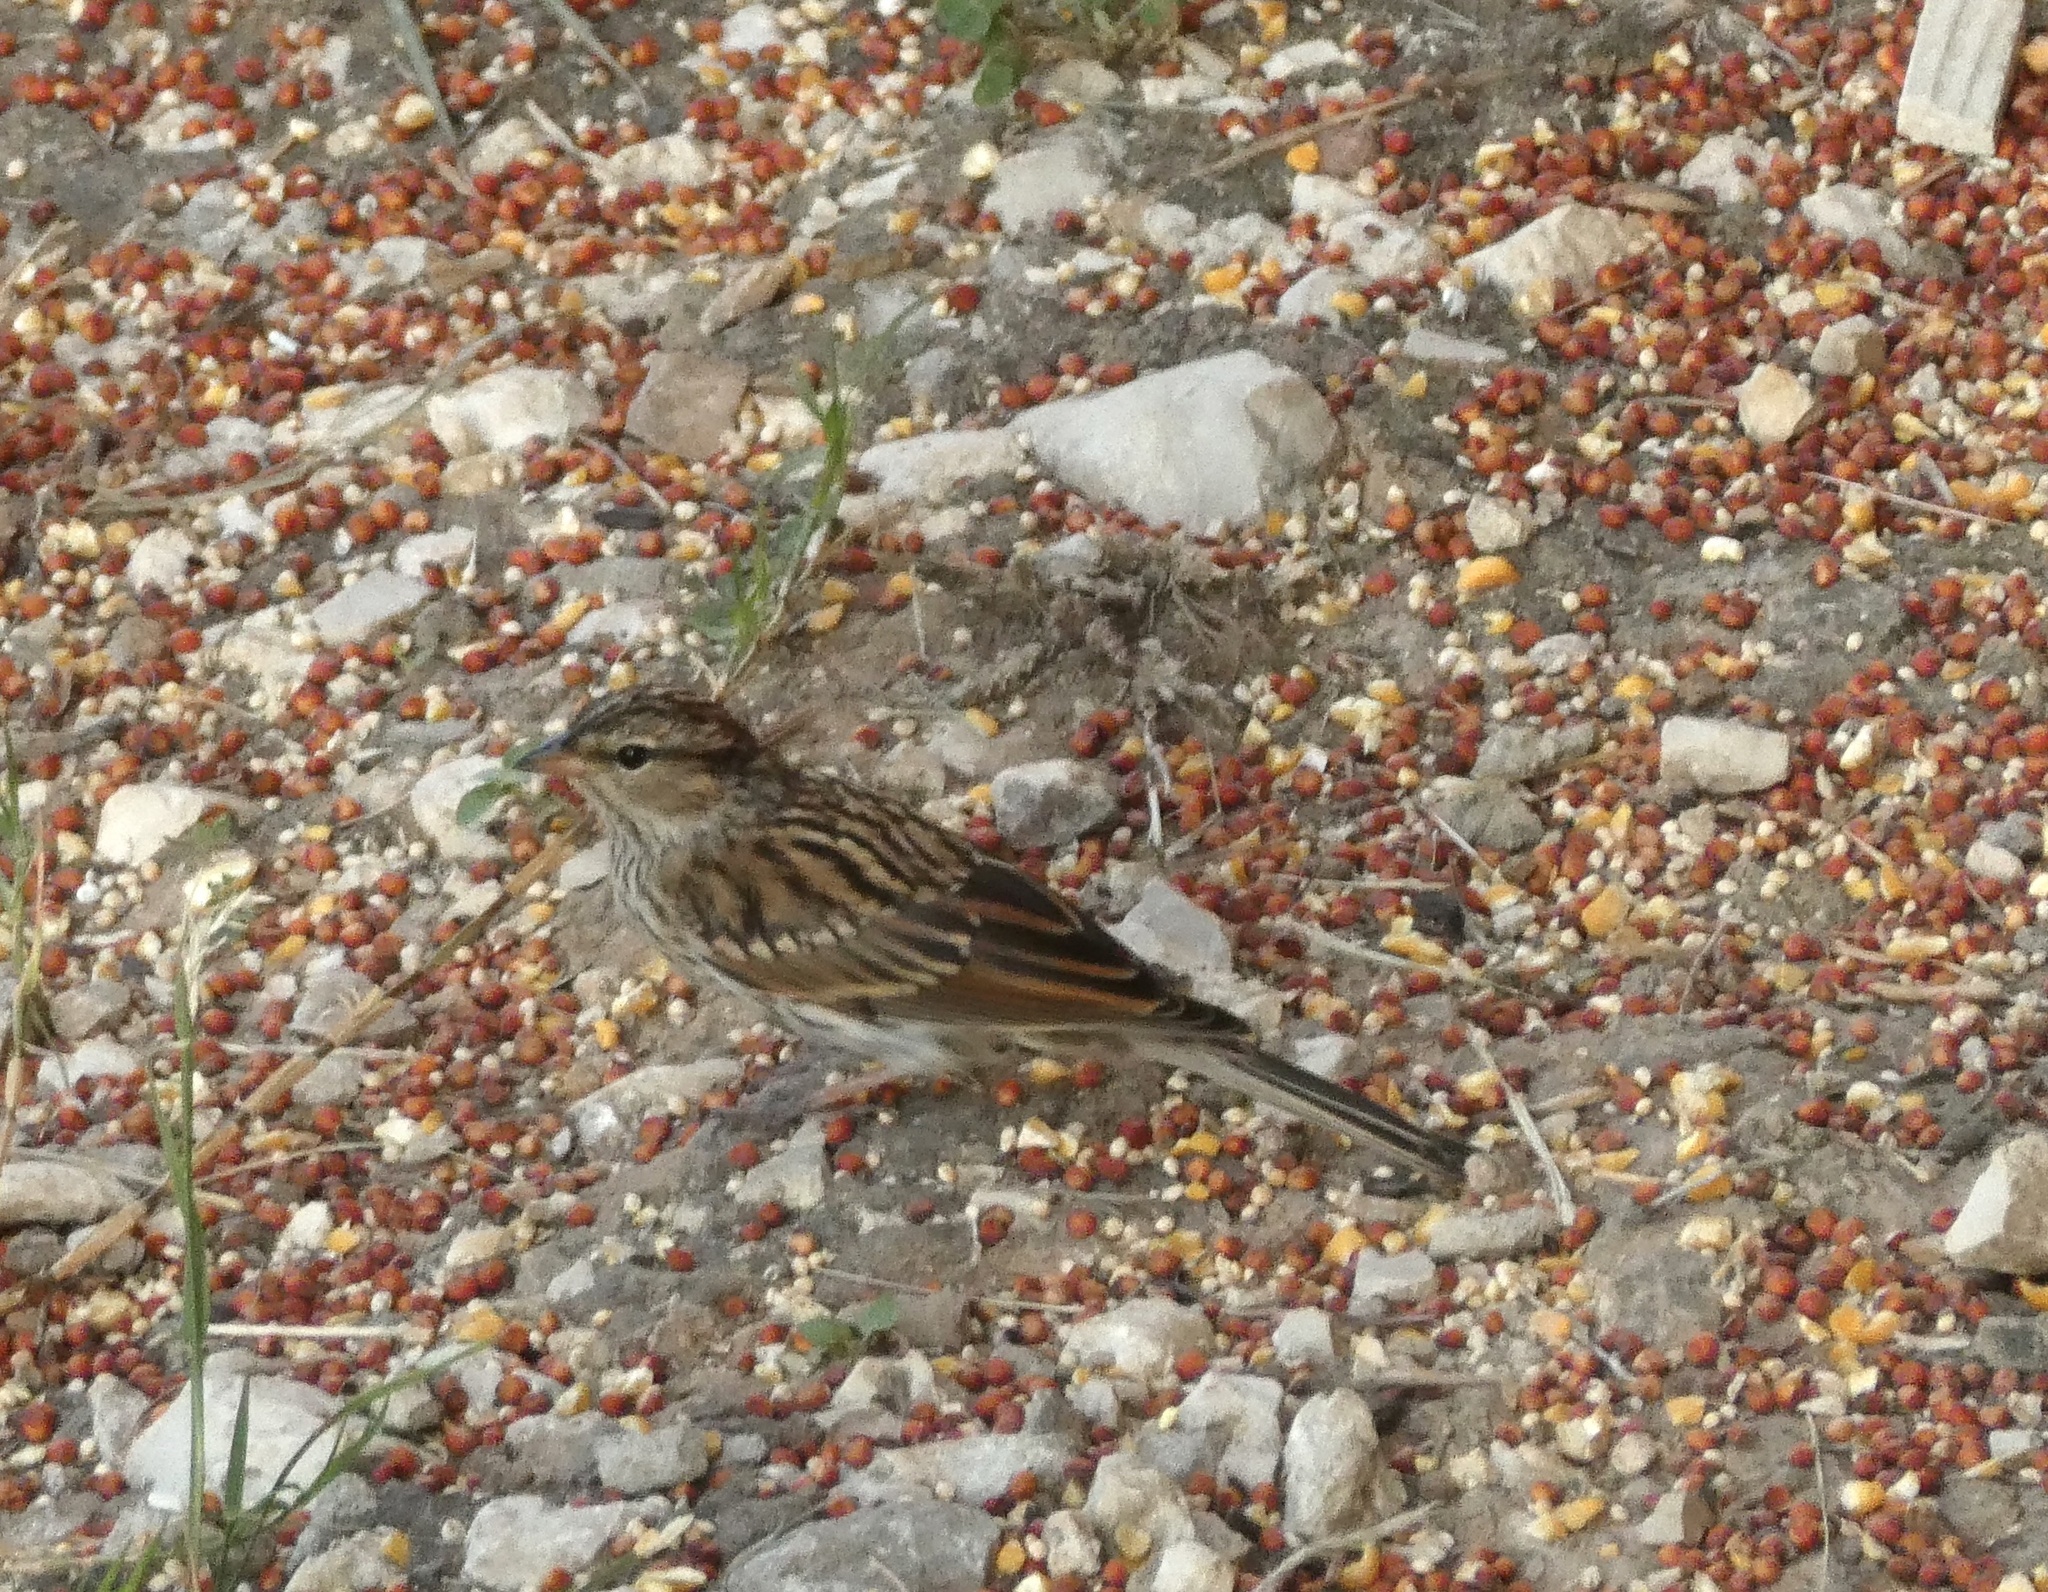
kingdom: Animalia
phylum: Chordata
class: Aves
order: Passeriformes
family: Passerellidae
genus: Spizella
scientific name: Spizella passerina
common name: Chipping sparrow
